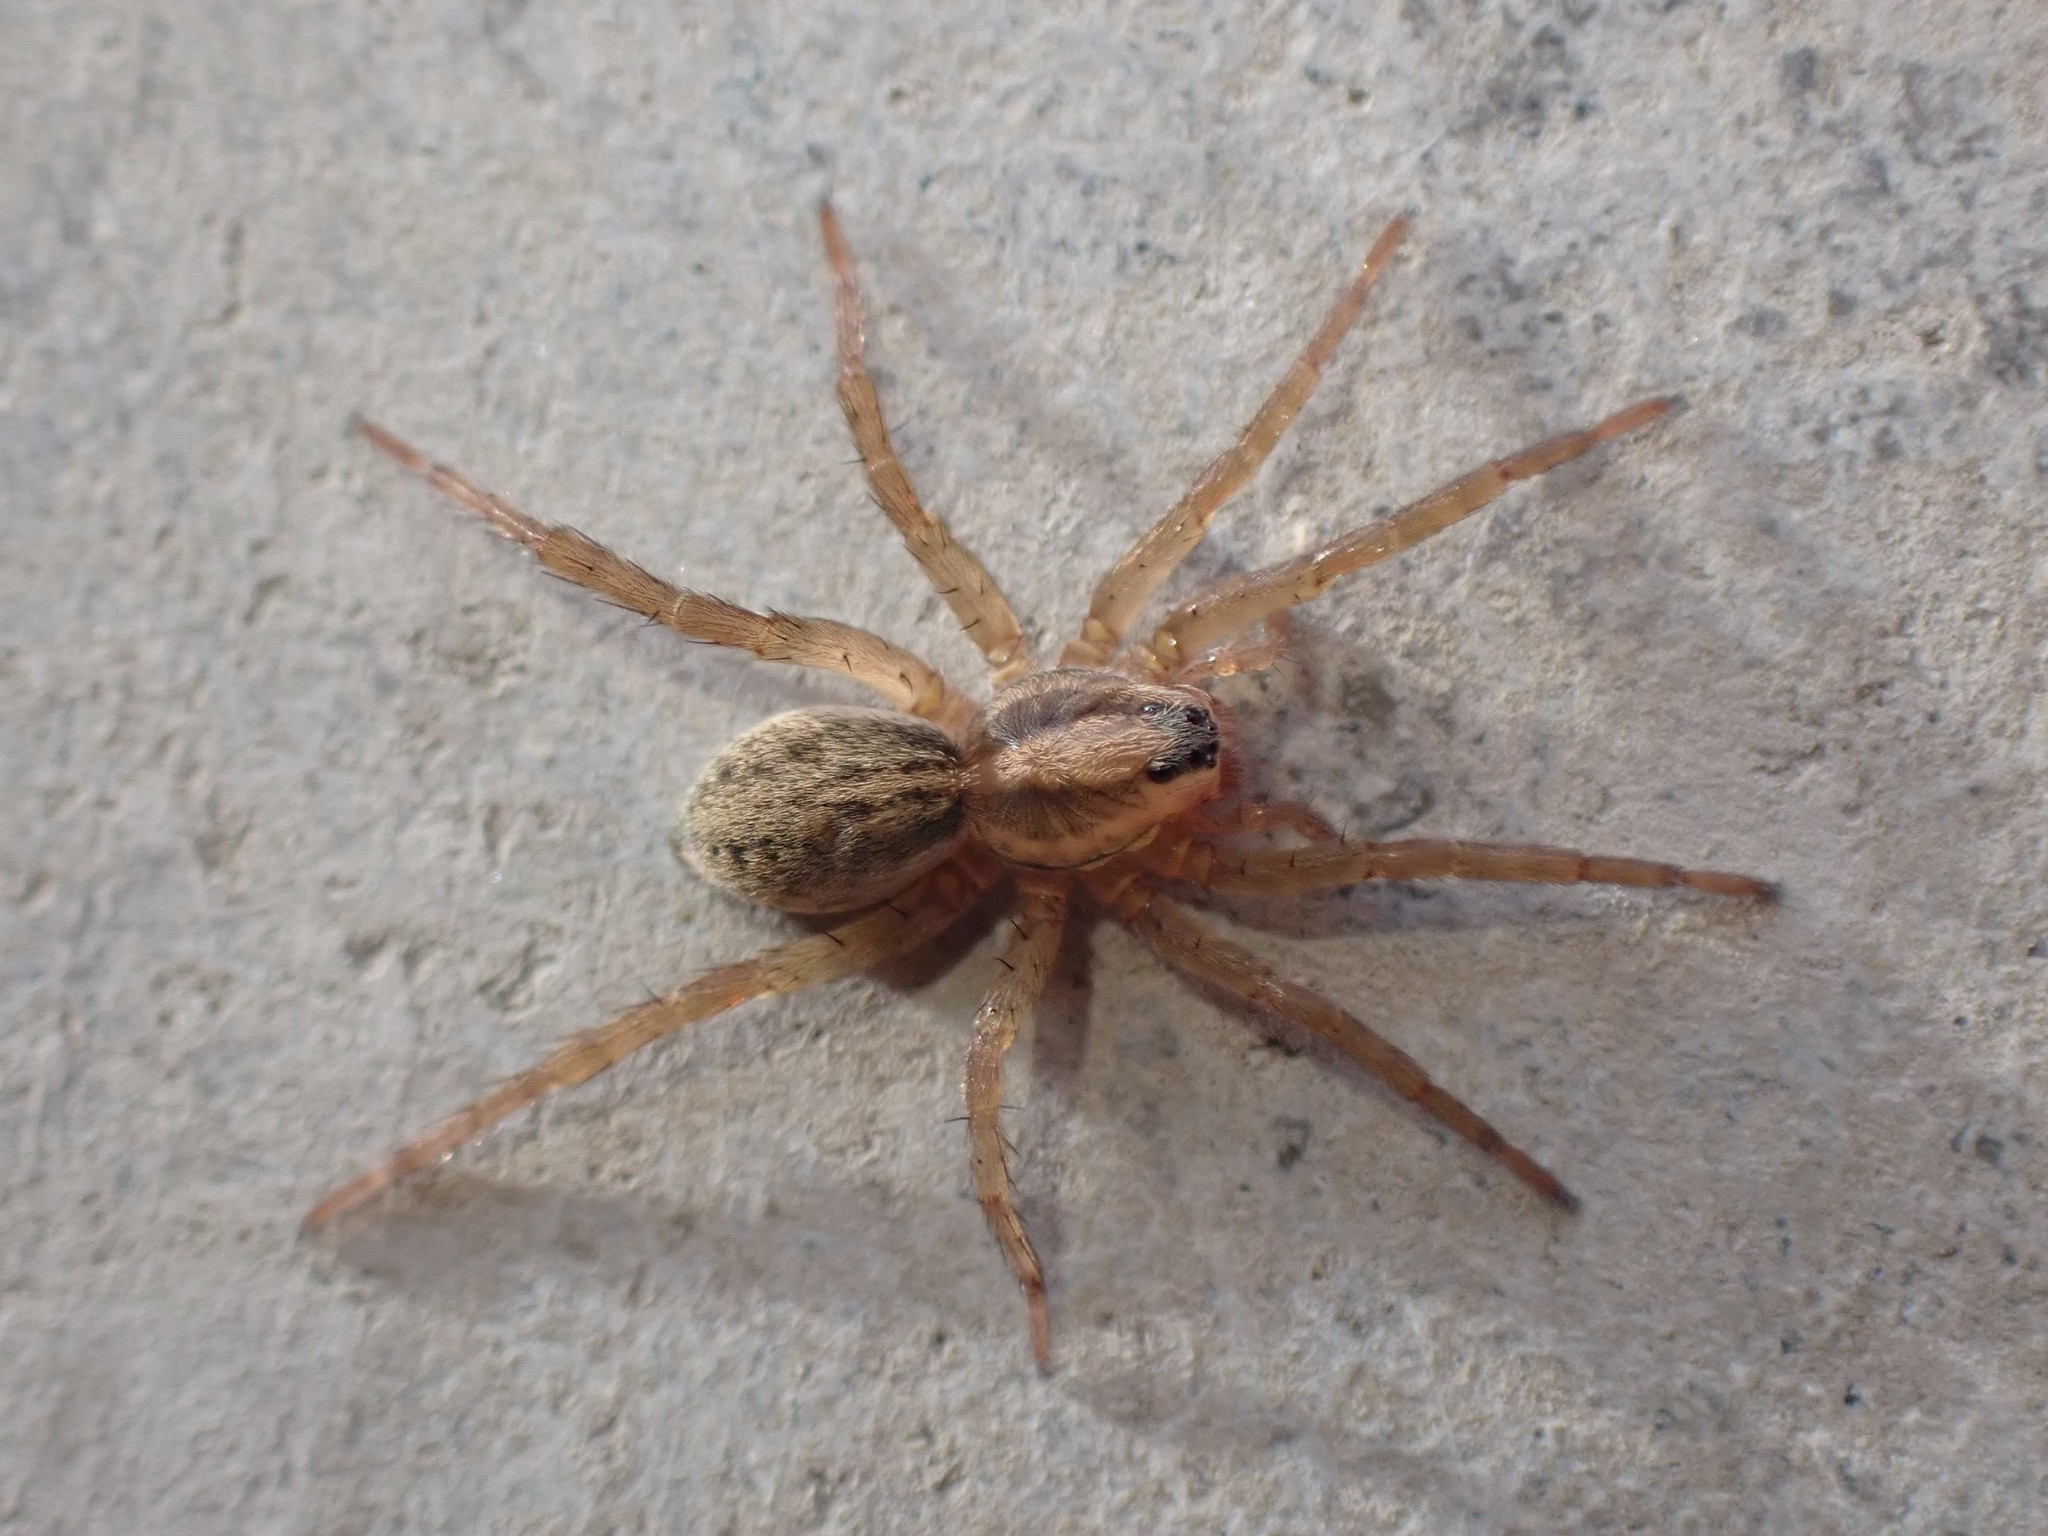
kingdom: Animalia
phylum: Arthropoda
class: Arachnida
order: Araneae
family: Lycosidae
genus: Trochosa
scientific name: Trochosa ruricola
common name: Spider
